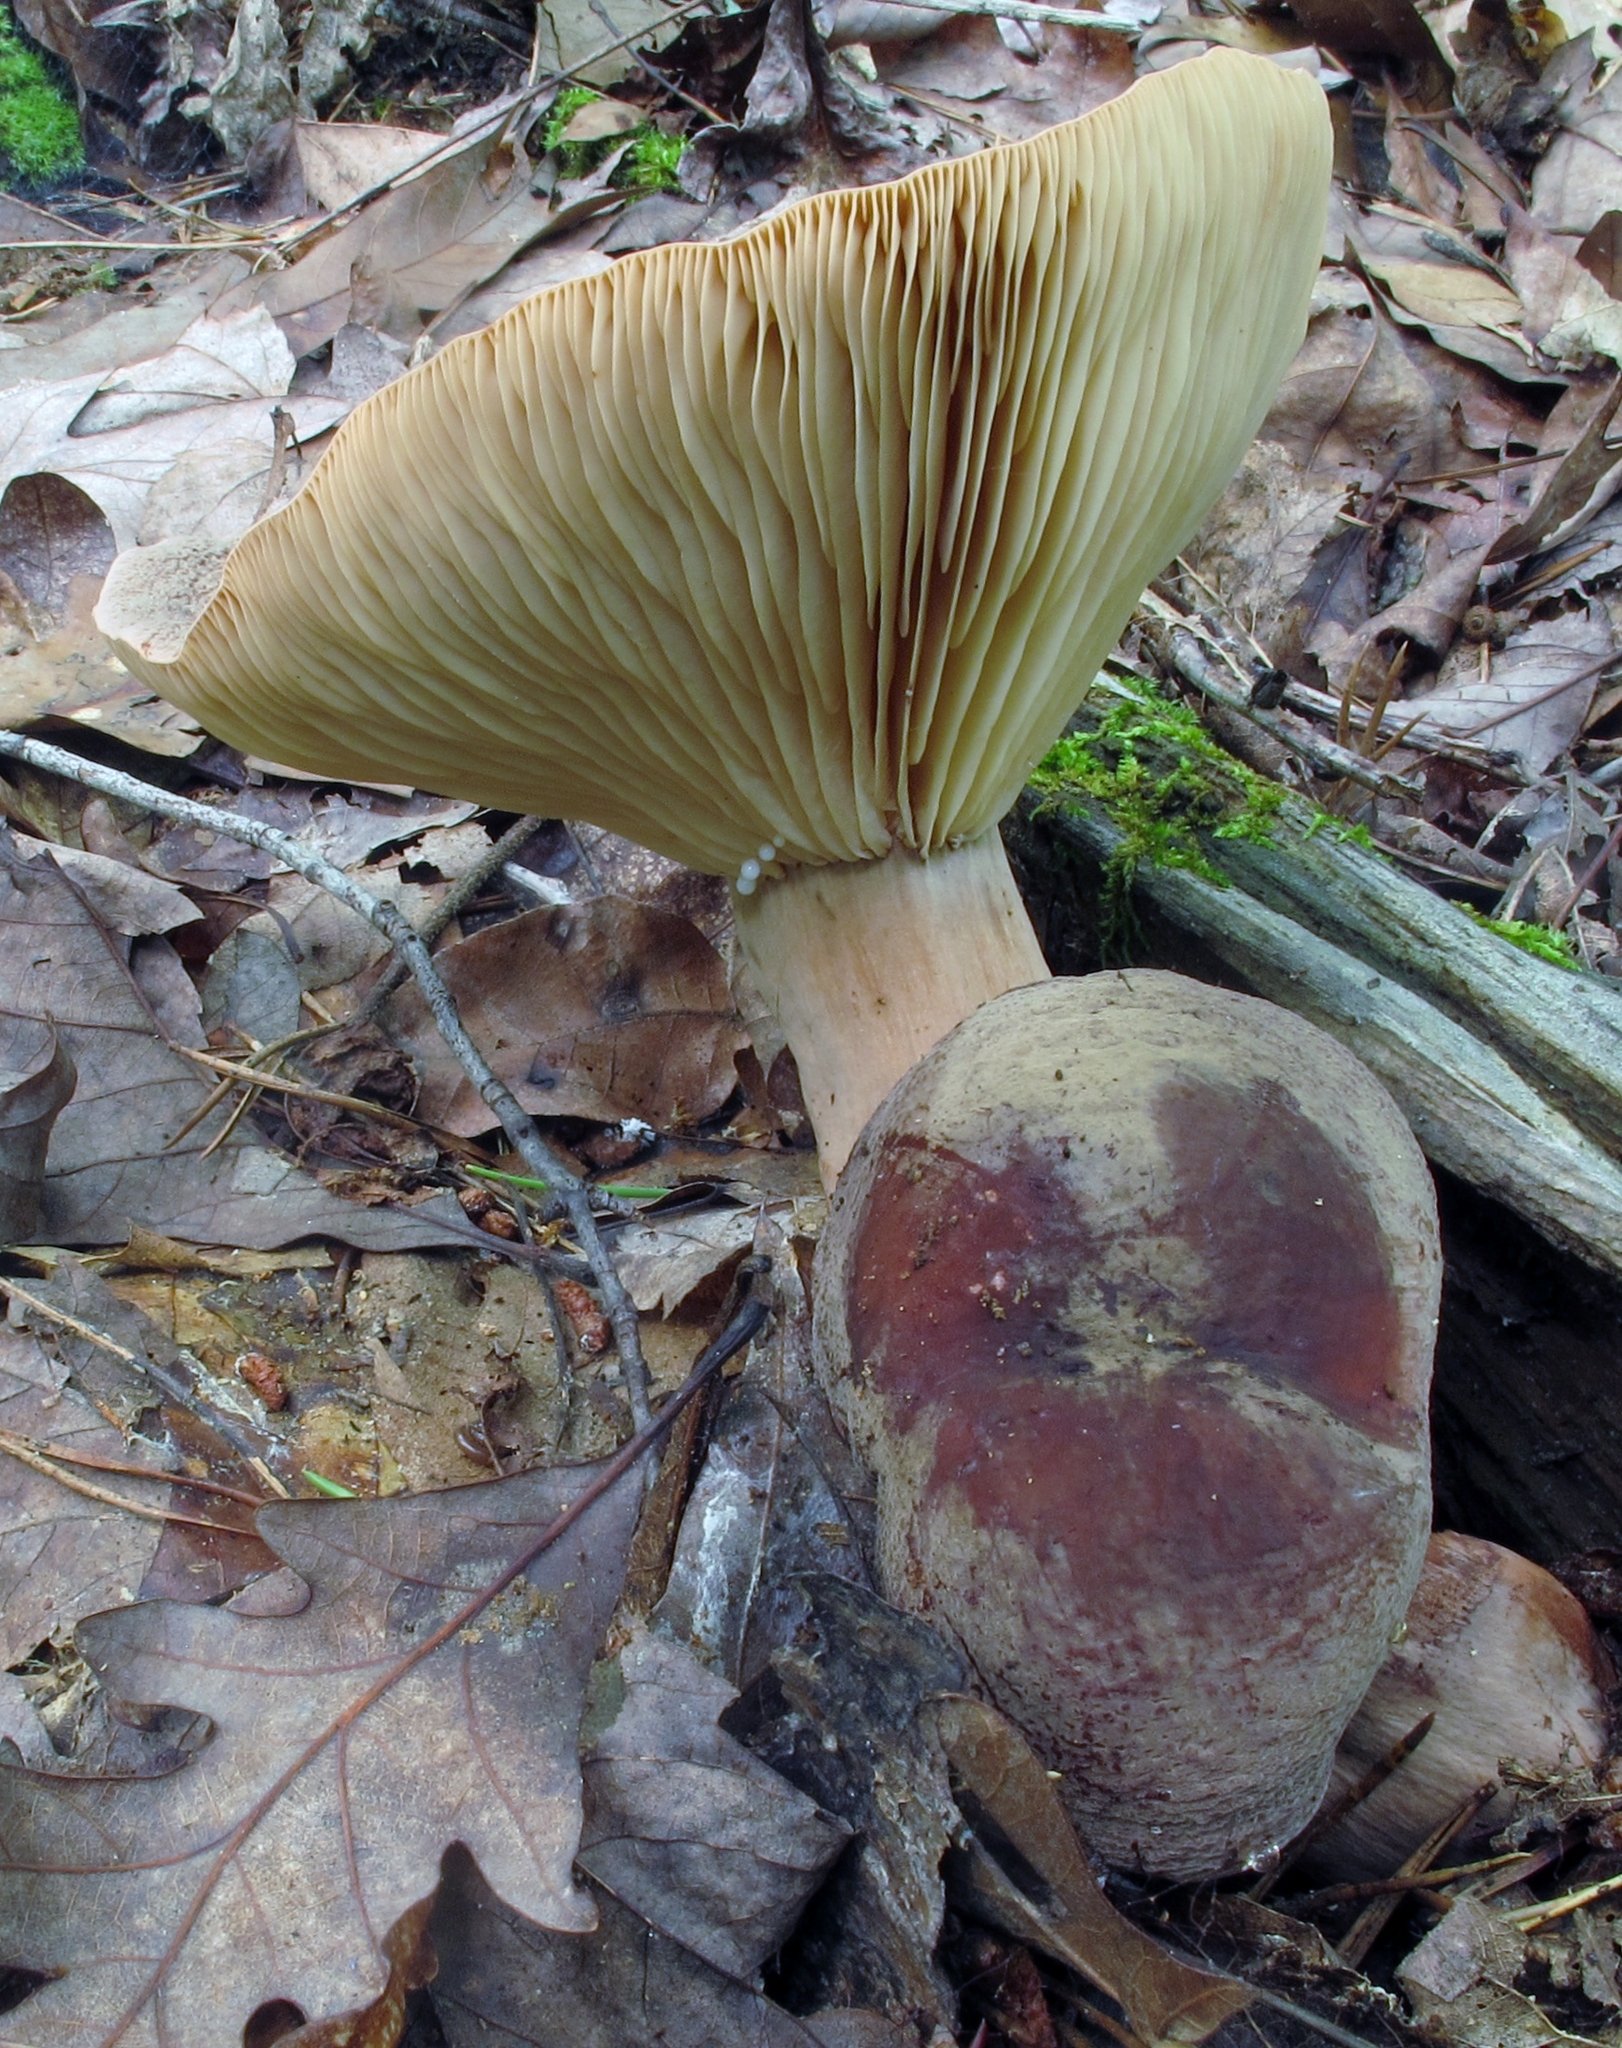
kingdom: Fungi
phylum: Basidiomycota
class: Agaricomycetes
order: Russulales
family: Russulaceae
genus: Lactarius
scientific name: Lactarius corrugis
